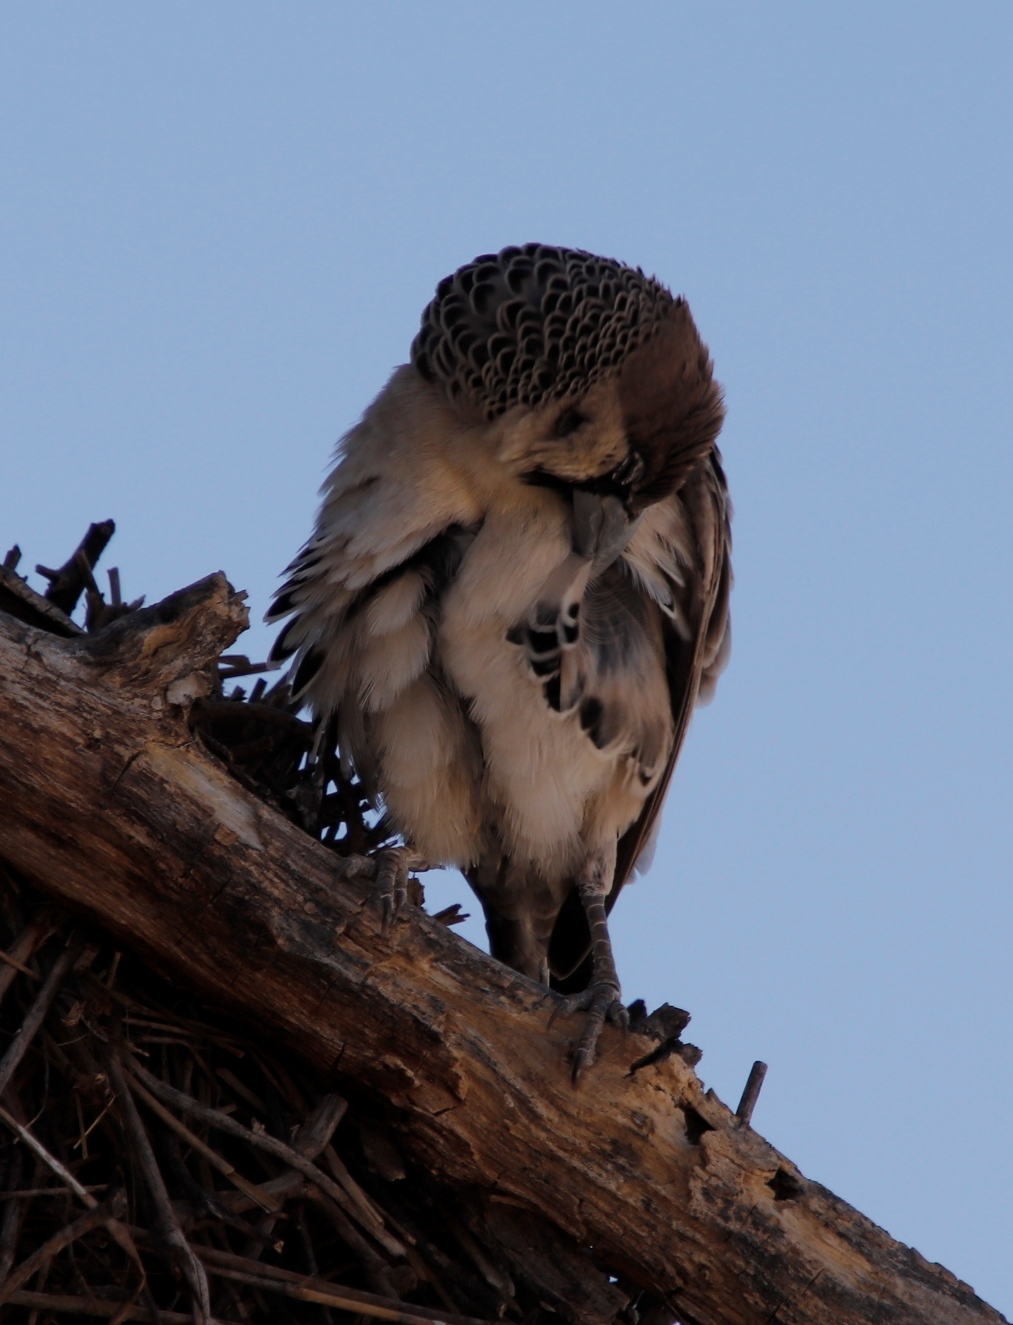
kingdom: Animalia
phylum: Chordata
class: Aves
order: Passeriformes
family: Passeridae
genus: Philetairus
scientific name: Philetairus socius
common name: Sociable weaver
